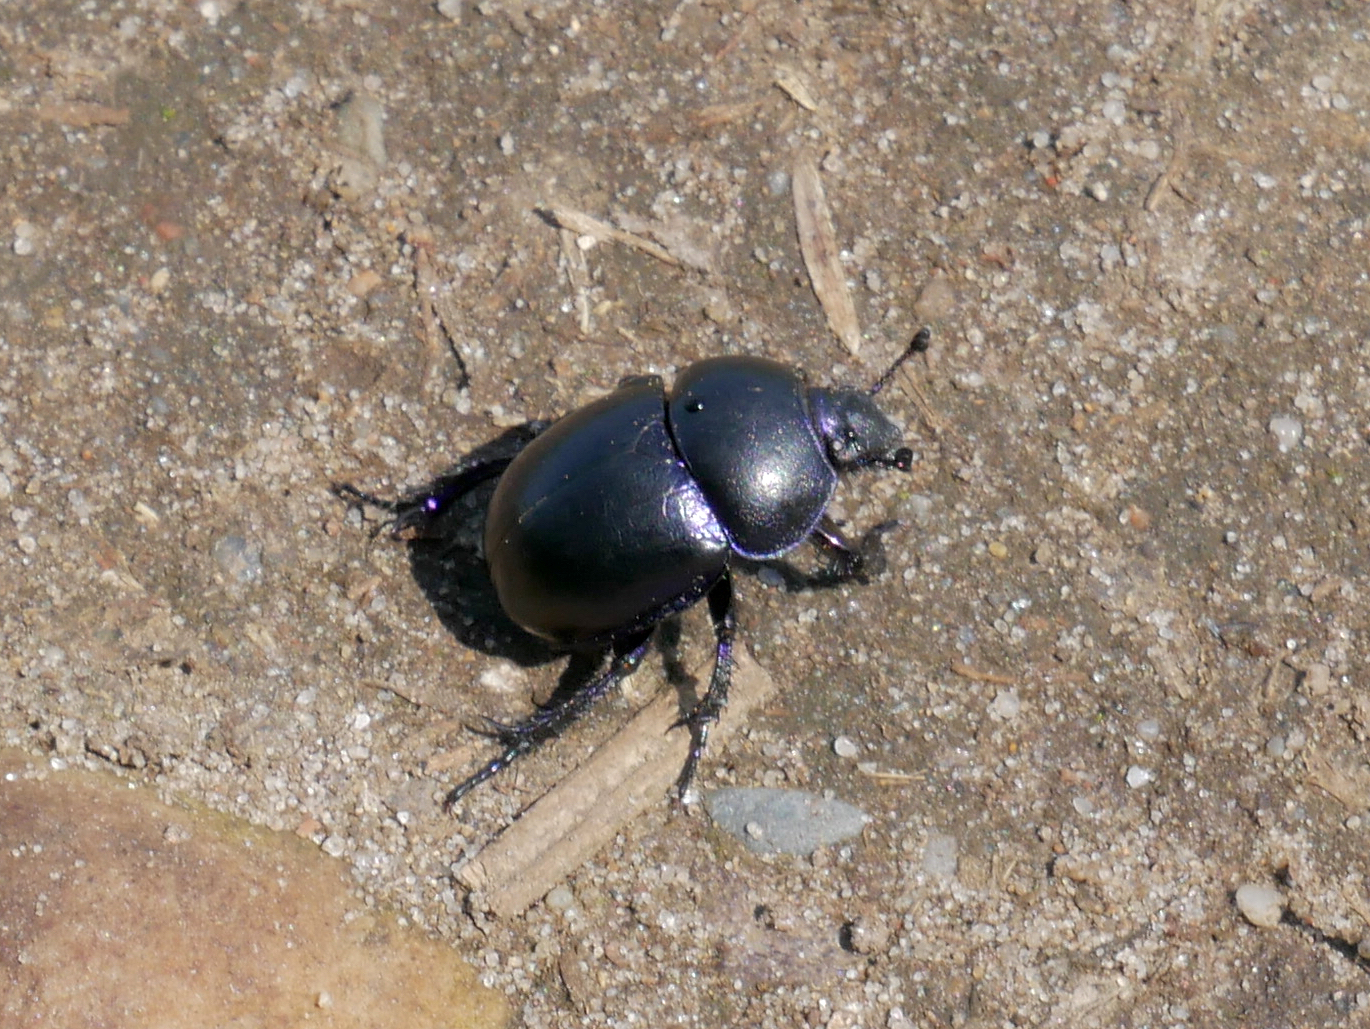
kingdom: Animalia
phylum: Arthropoda
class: Insecta
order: Coleoptera
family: Geotrupidae
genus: Trypocopris
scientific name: Trypocopris vernalis
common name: Spring dumbledor
